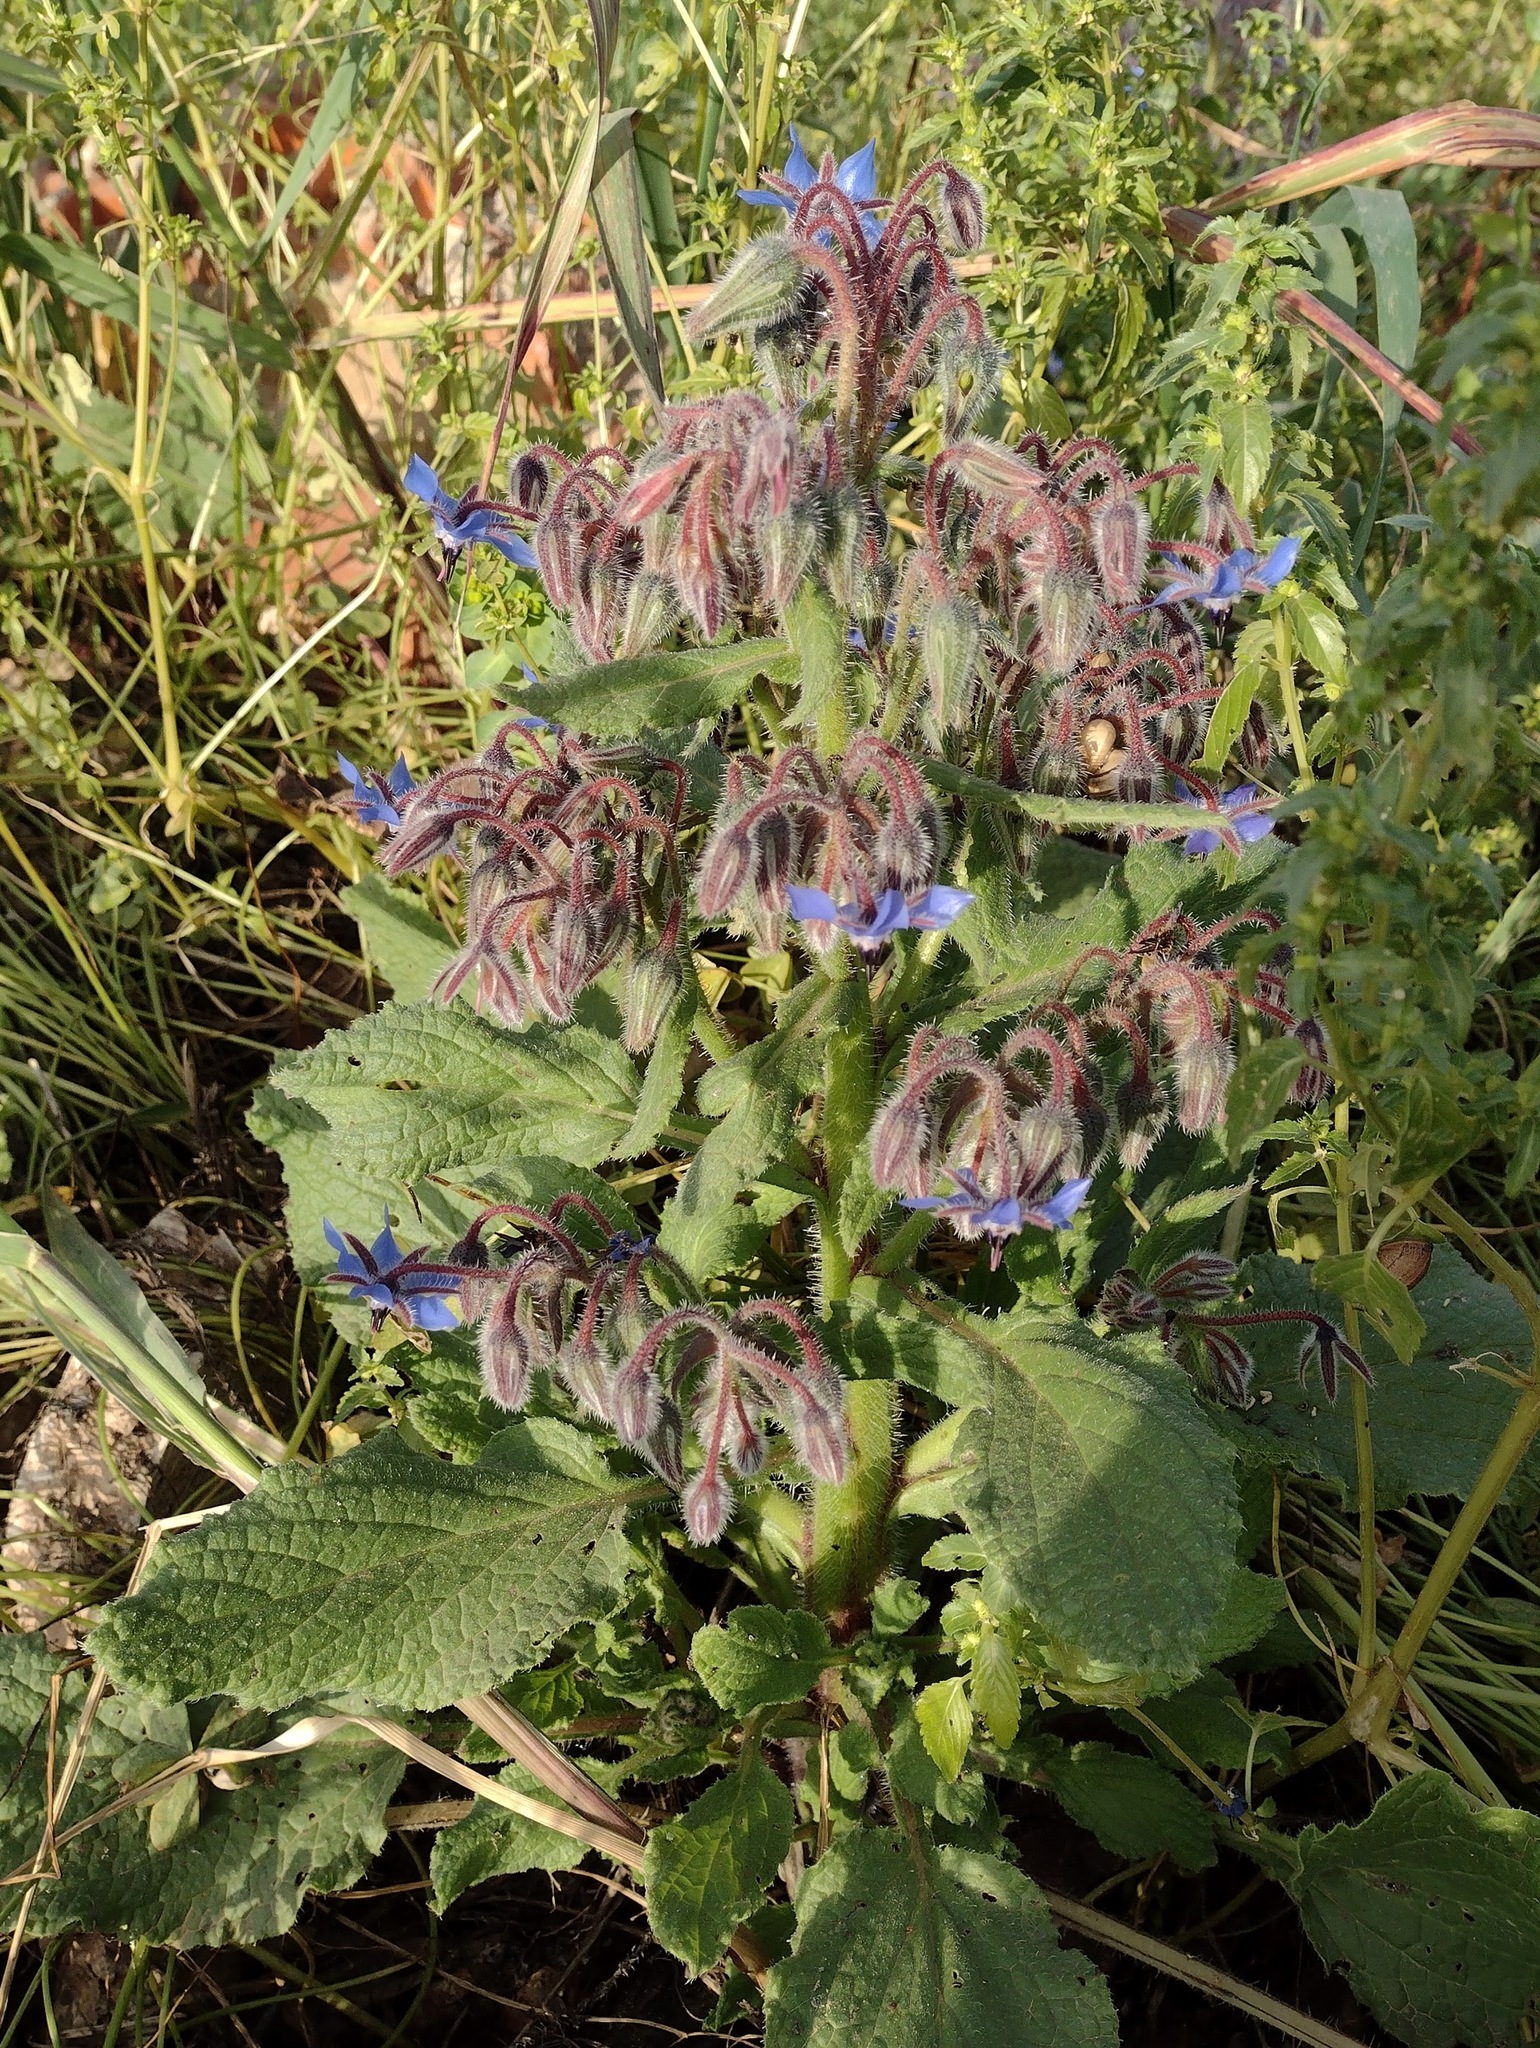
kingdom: Plantae
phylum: Tracheophyta
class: Magnoliopsida
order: Boraginales
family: Boraginaceae
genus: Borago
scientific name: Borago officinalis
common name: Borage
